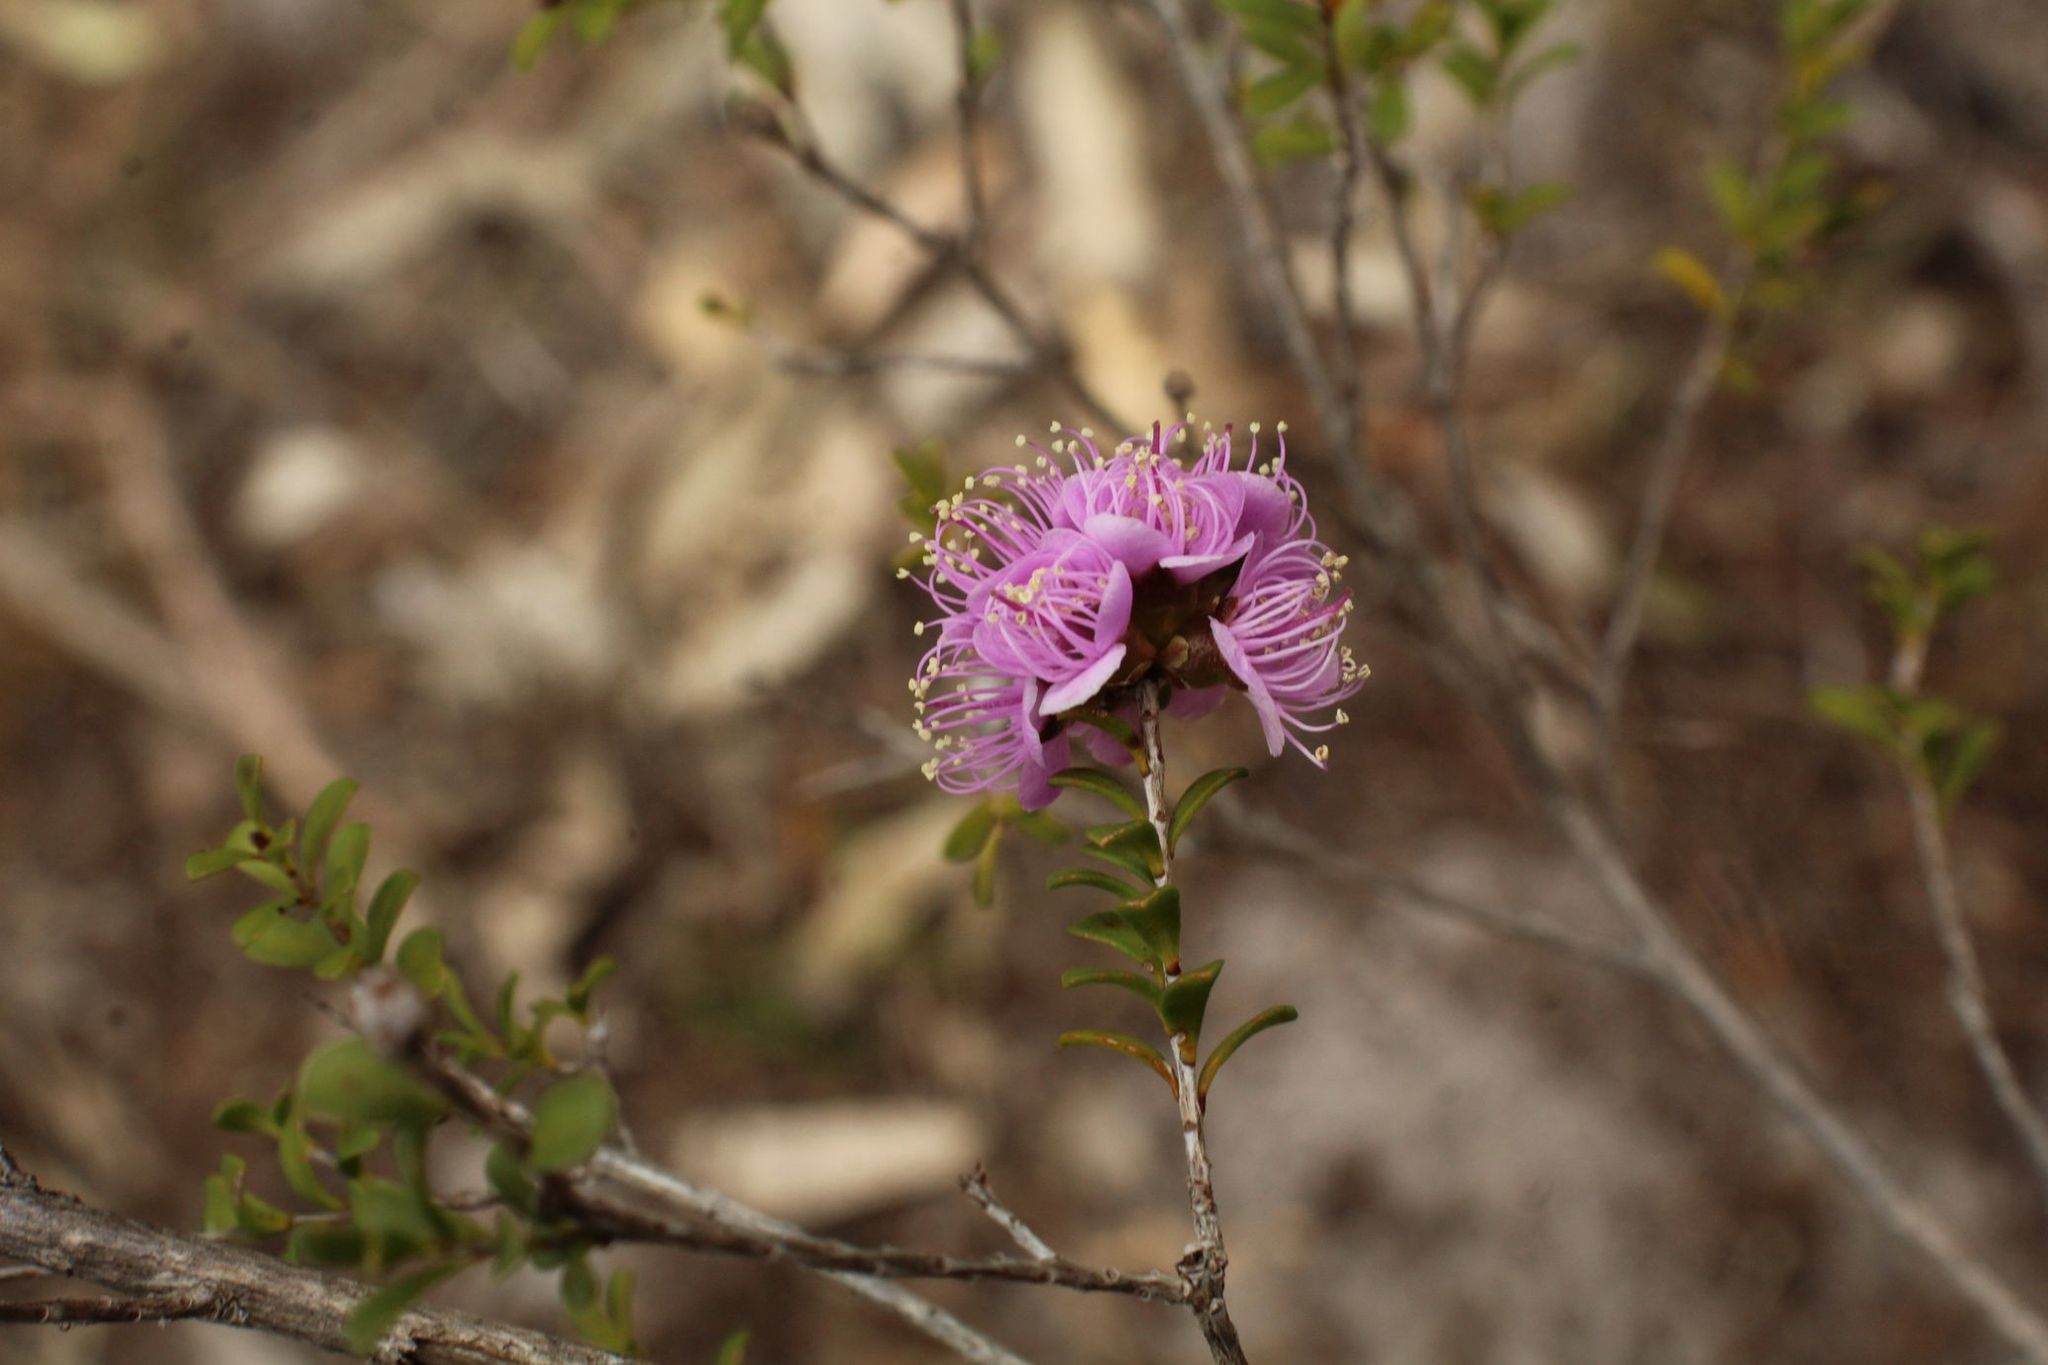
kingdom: Plantae
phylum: Tracheophyta
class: Magnoliopsida
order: Myrtales
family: Myrtaceae
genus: Kunzea
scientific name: Kunzea recurva
